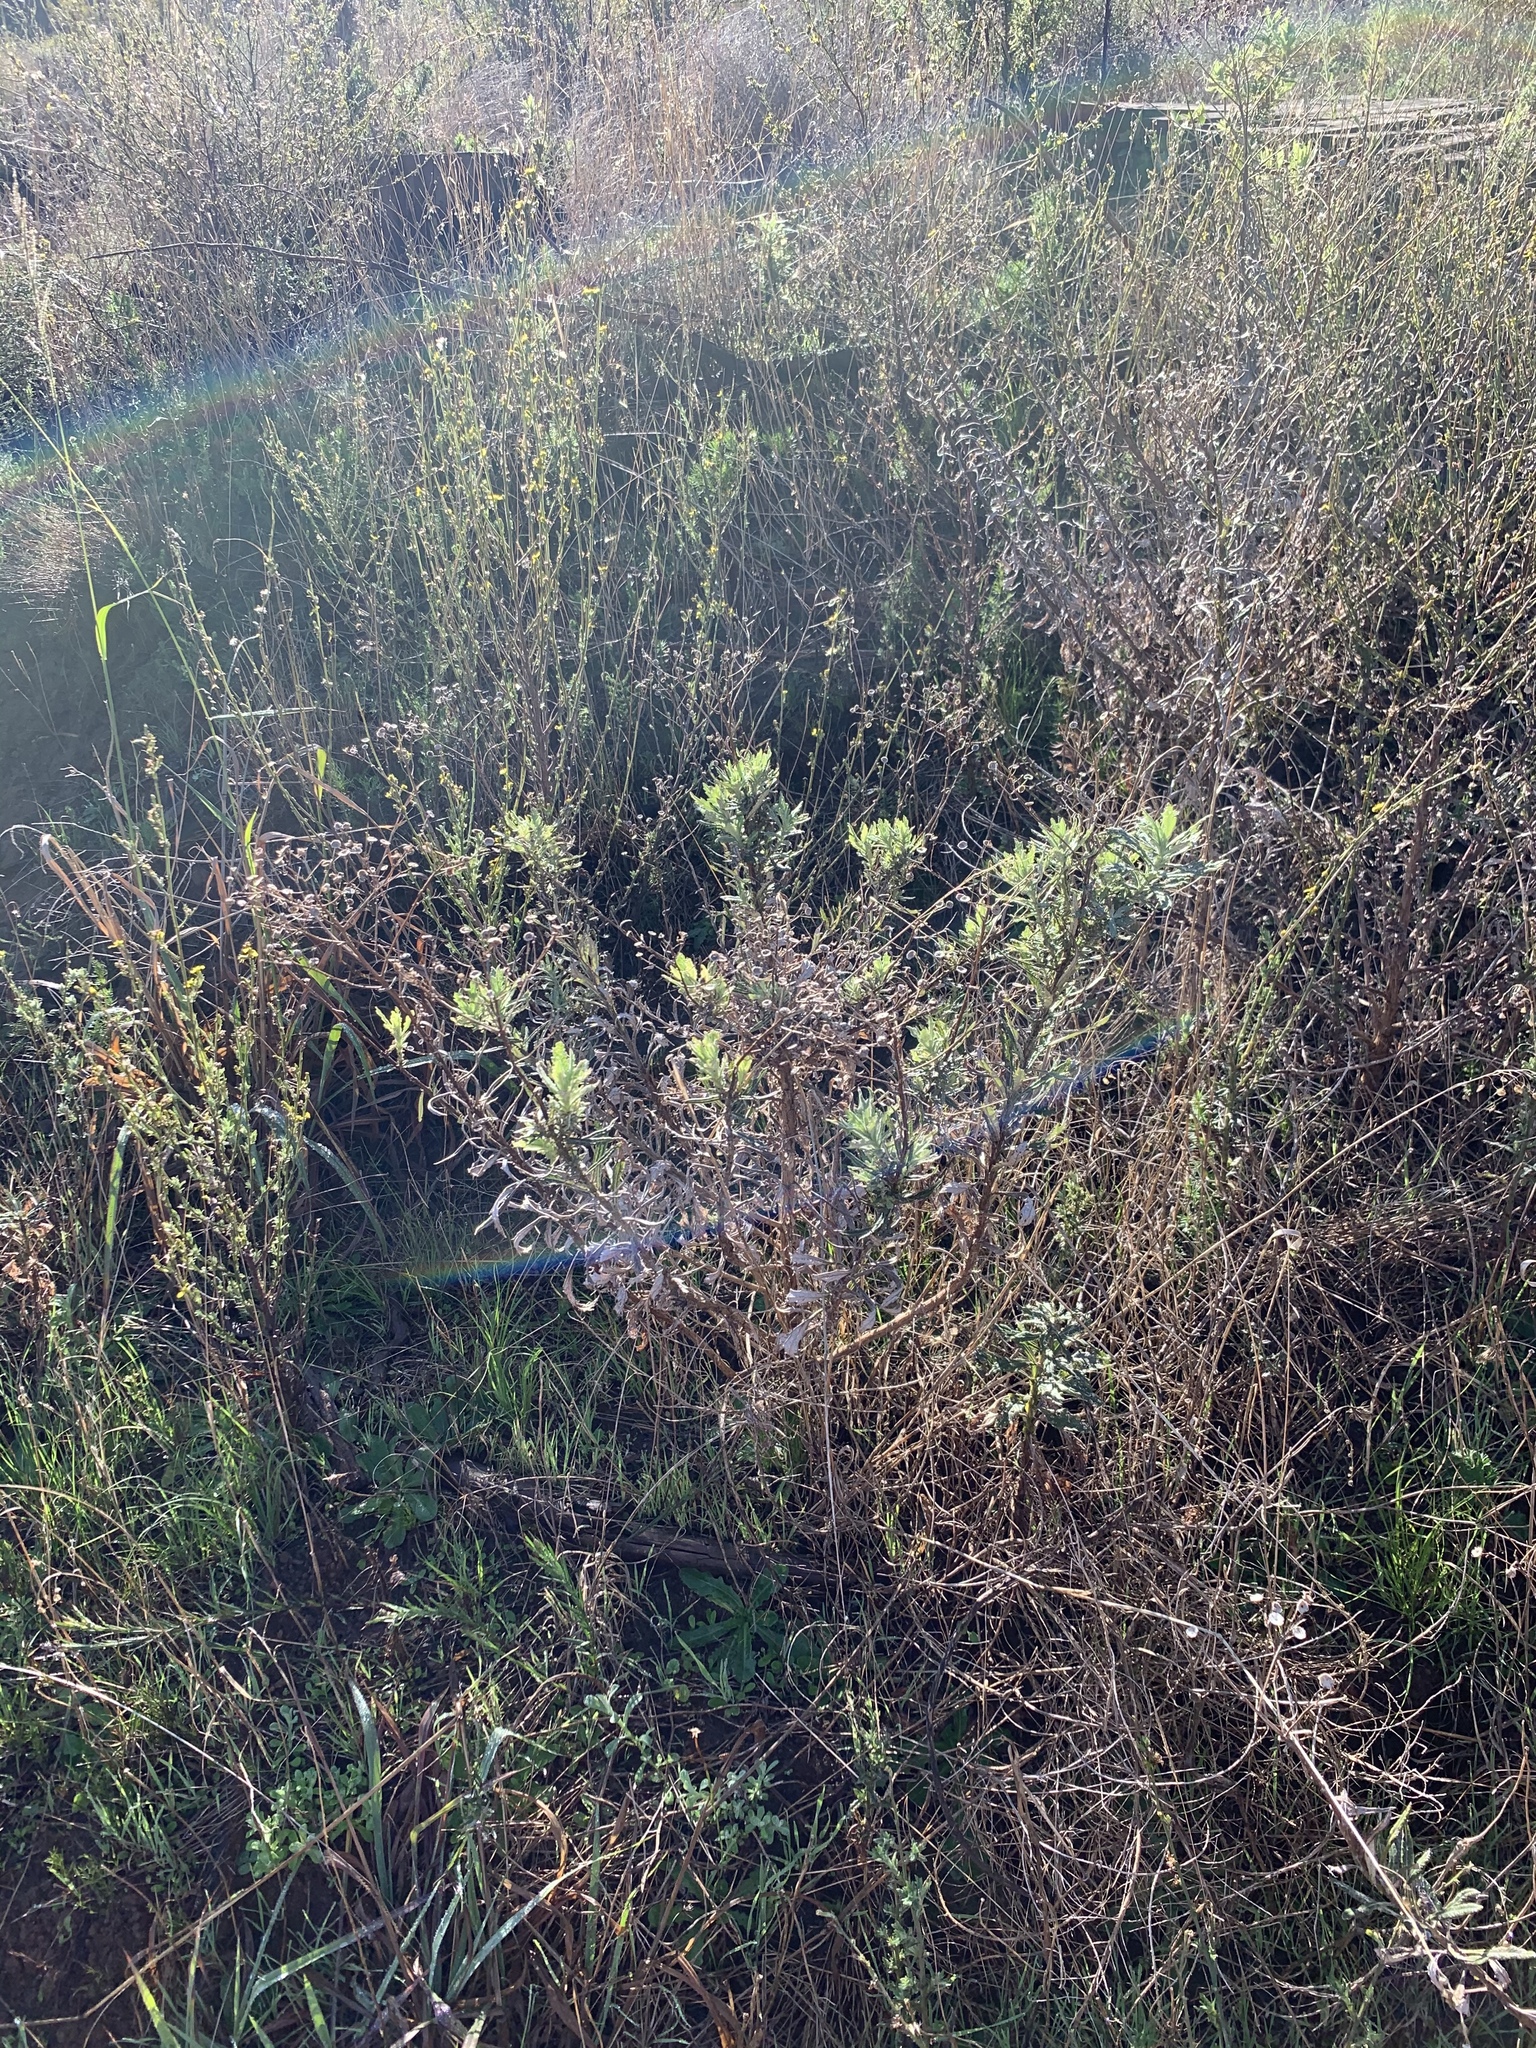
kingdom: Plantae
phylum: Tracheophyta
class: Magnoliopsida
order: Asterales
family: Asteraceae
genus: Senecio
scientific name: Senecio pterophorus
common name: Shoddy ragwort
